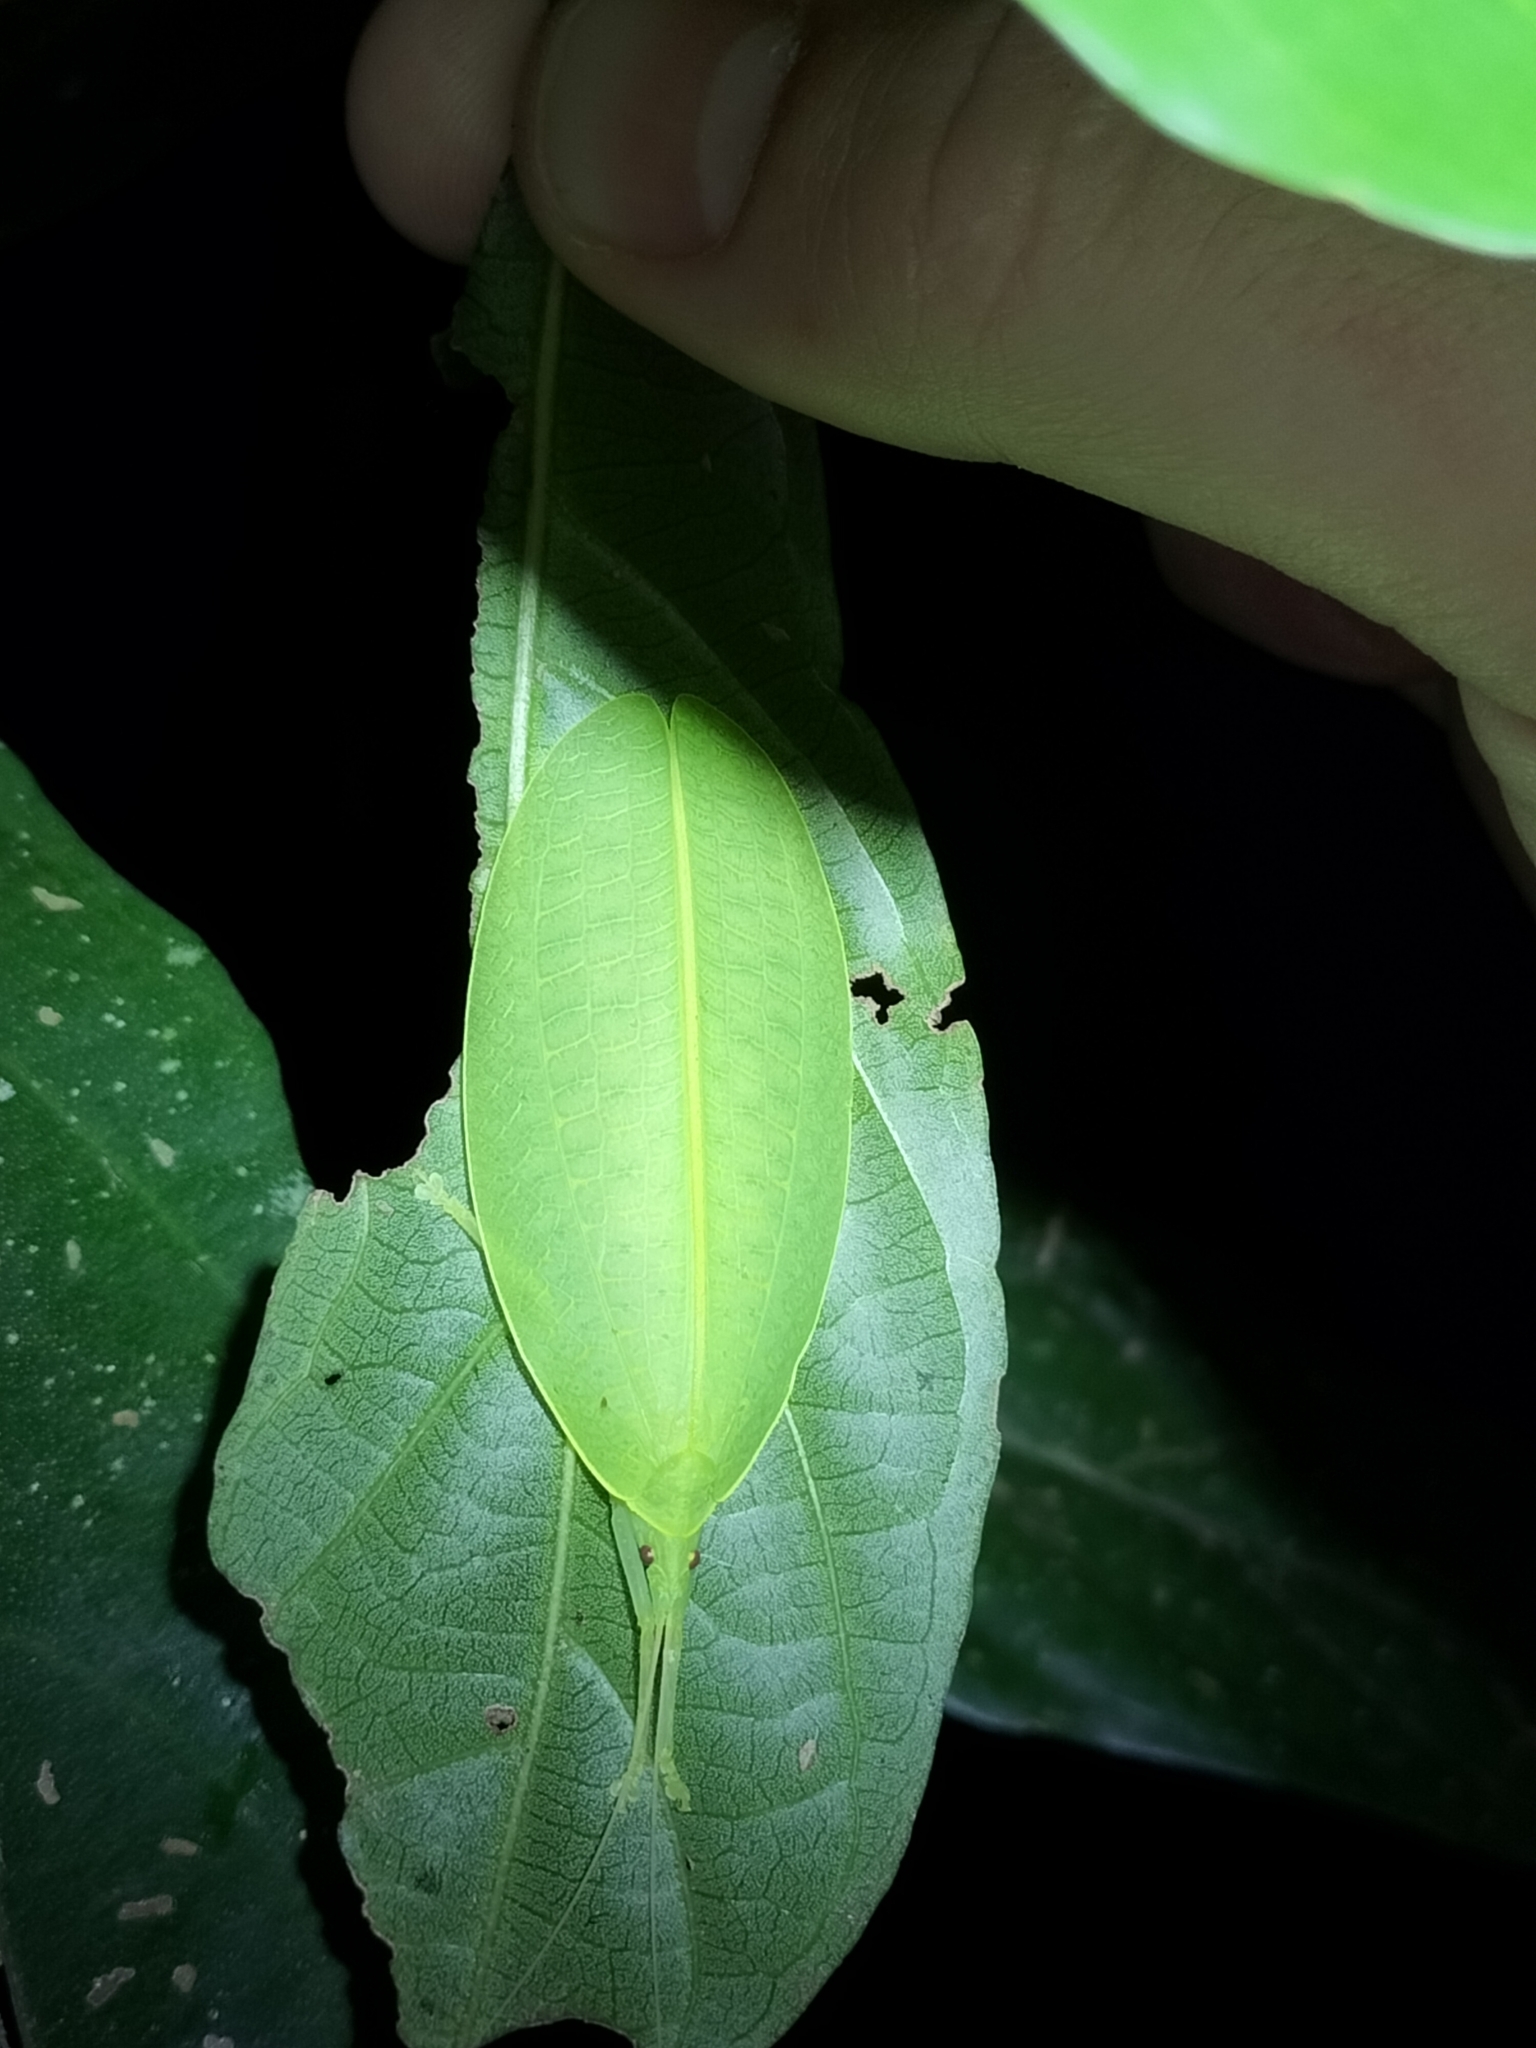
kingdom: Animalia
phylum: Arthropoda
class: Insecta
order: Orthoptera
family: Tettigoniidae
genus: Acauloplacella
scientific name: Acauloplacella hasenpuschae
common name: Sue's leaf mimic
